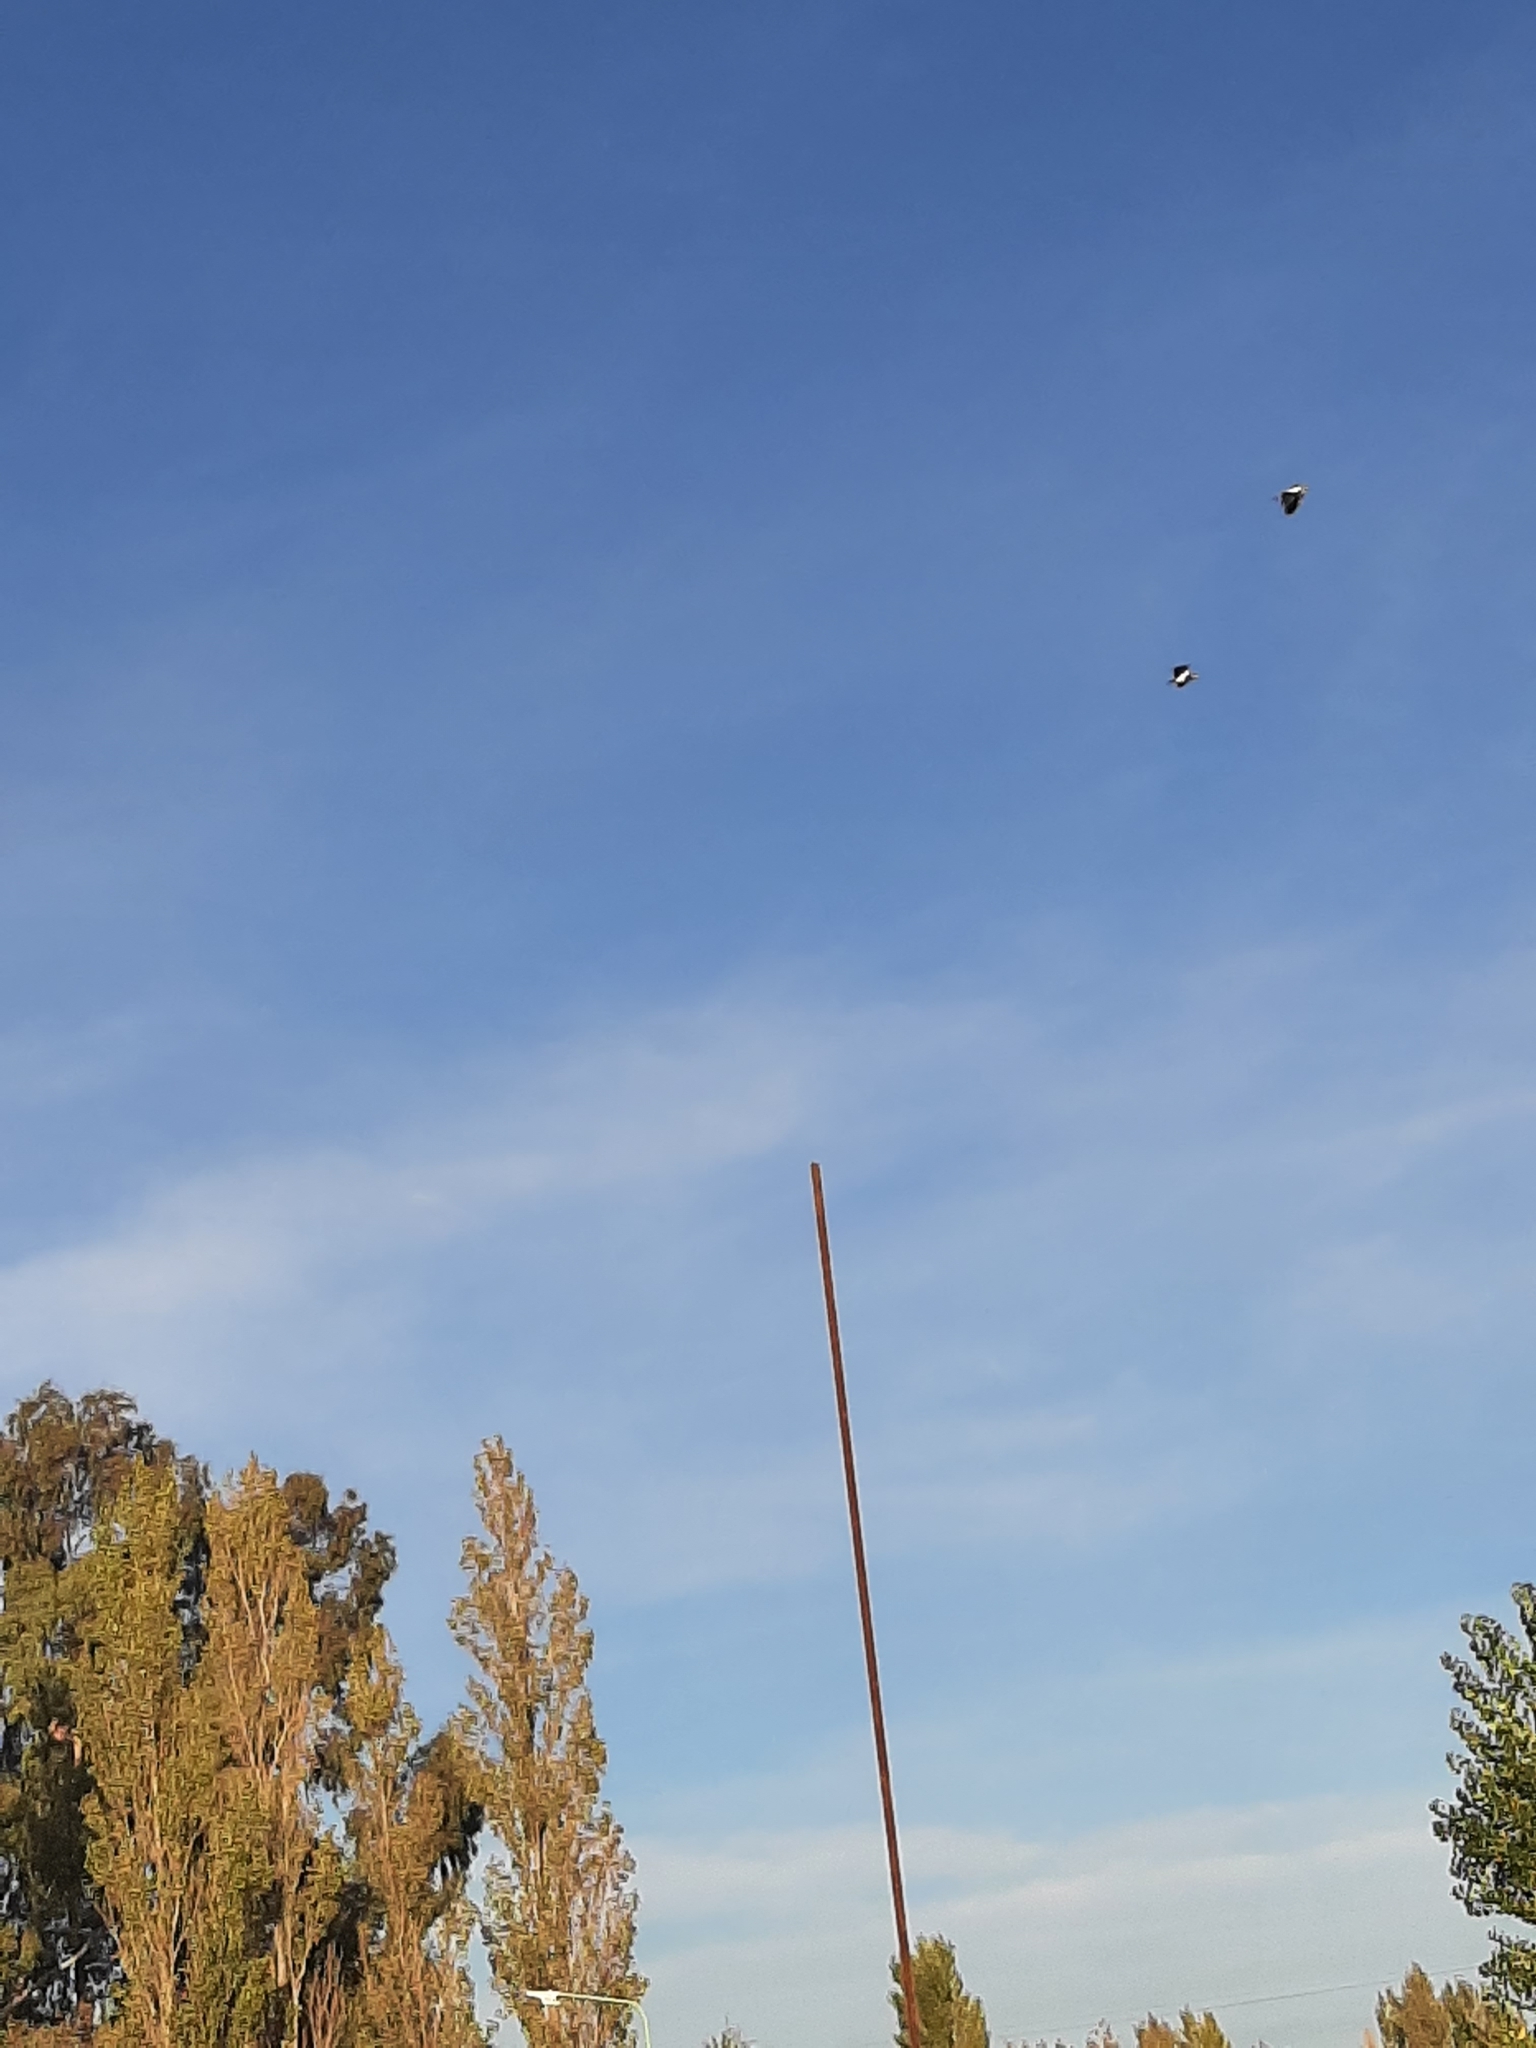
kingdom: Animalia
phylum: Chordata
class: Aves
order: Charadriiformes
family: Charadriidae
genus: Vanellus
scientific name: Vanellus chilensis
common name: Southern lapwing
